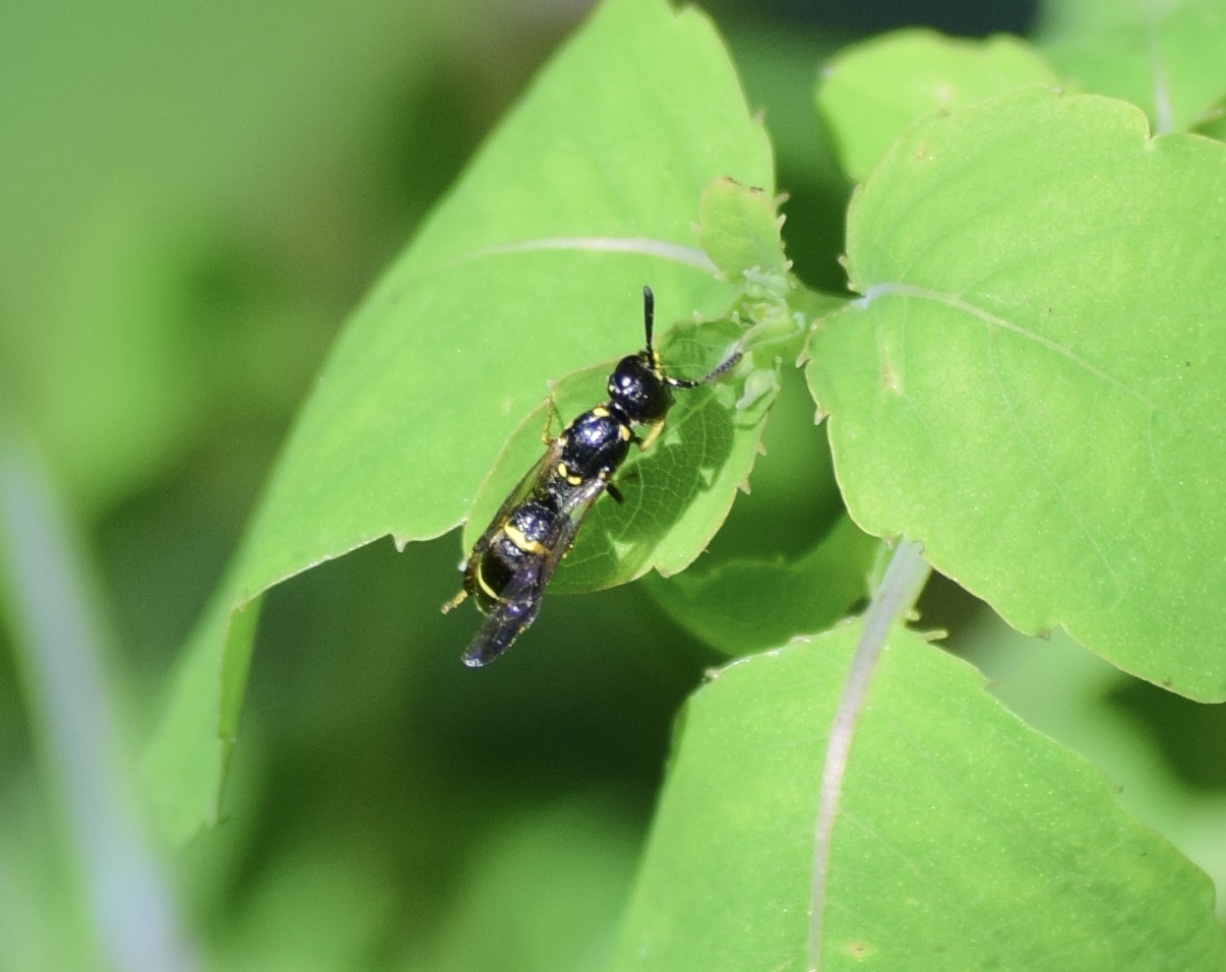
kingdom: Animalia
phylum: Arthropoda
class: Insecta
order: Hymenoptera
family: Eumenidae
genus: Symmorphus
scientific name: Symmorphus canadensis
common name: Canadian potter wasp
